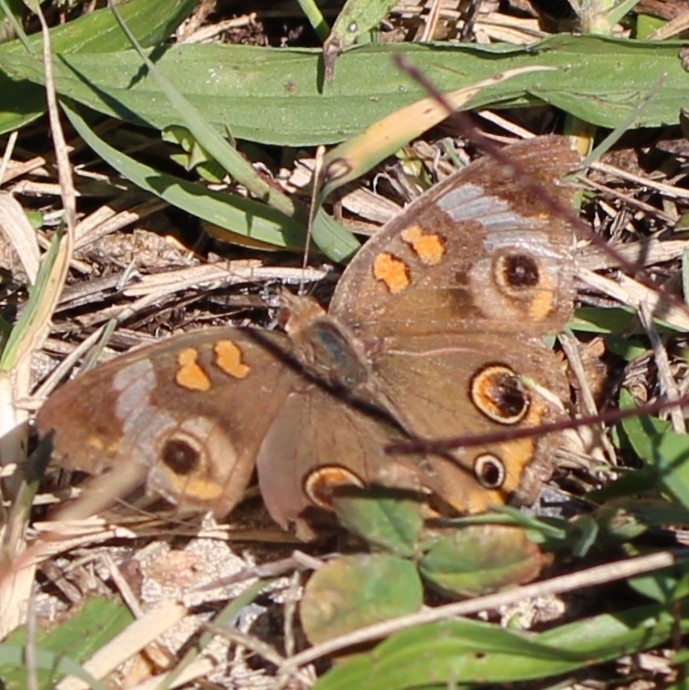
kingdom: Animalia
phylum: Arthropoda
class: Insecta
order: Lepidoptera
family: Nymphalidae
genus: Junonia
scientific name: Junonia coenia
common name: Common buckeye
